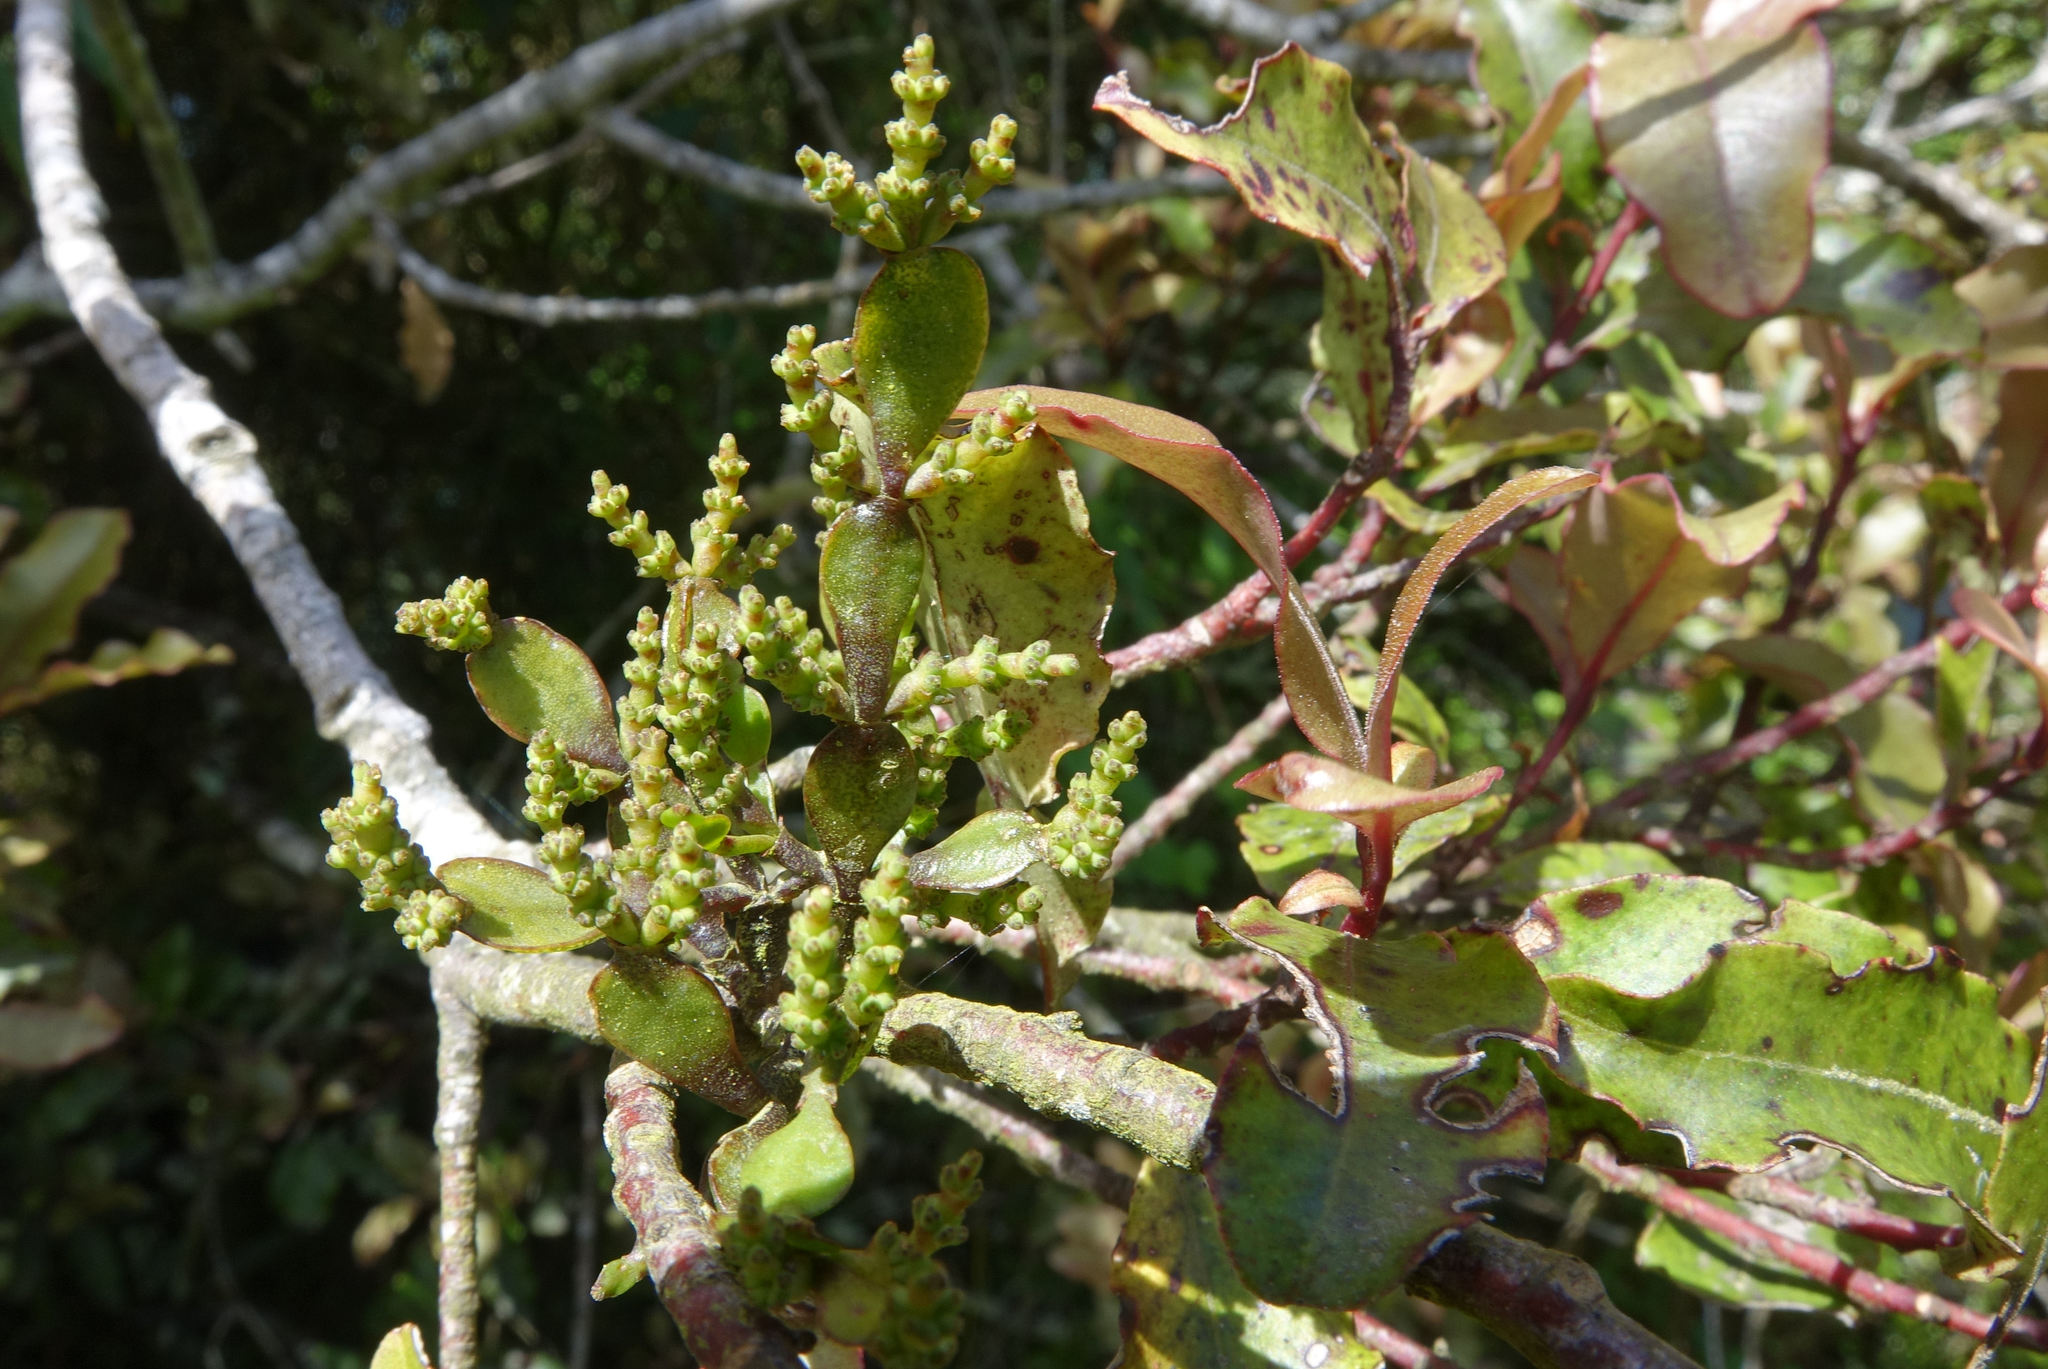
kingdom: Plantae
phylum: Tracheophyta
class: Magnoliopsida
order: Santalales
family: Viscaceae
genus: Korthalsella
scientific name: Korthalsella lindsayi
